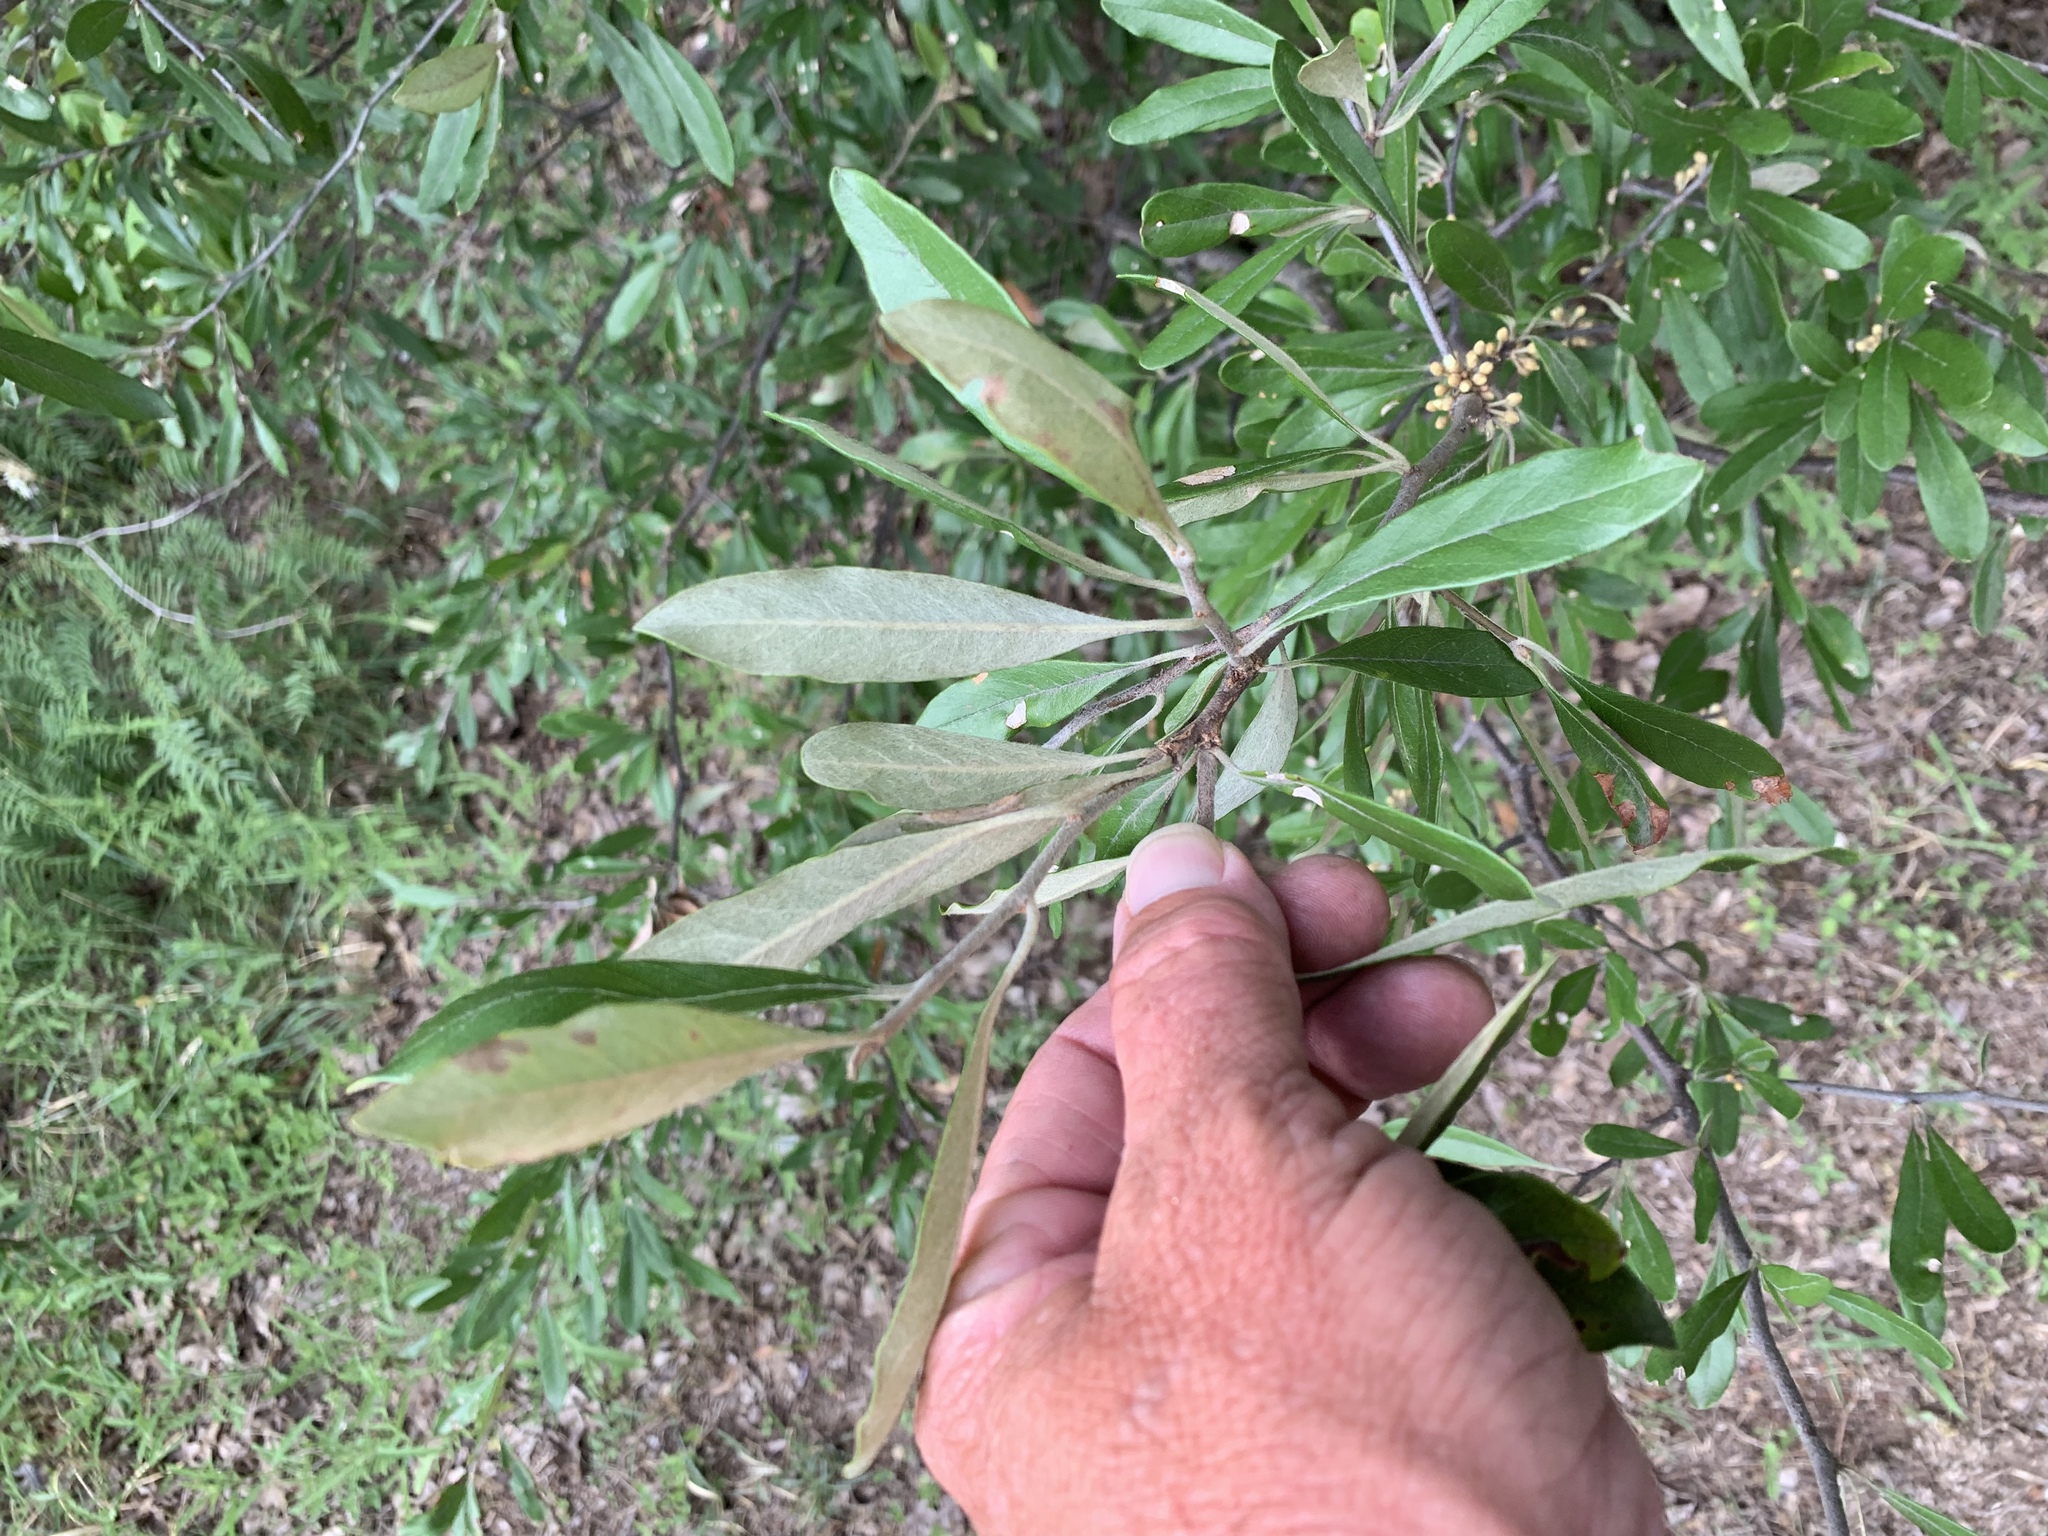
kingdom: Plantae
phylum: Tracheophyta
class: Magnoliopsida
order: Ericales
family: Sapotaceae
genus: Sideroxylon
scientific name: Sideroxylon lanuginosum
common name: Chittamwood
